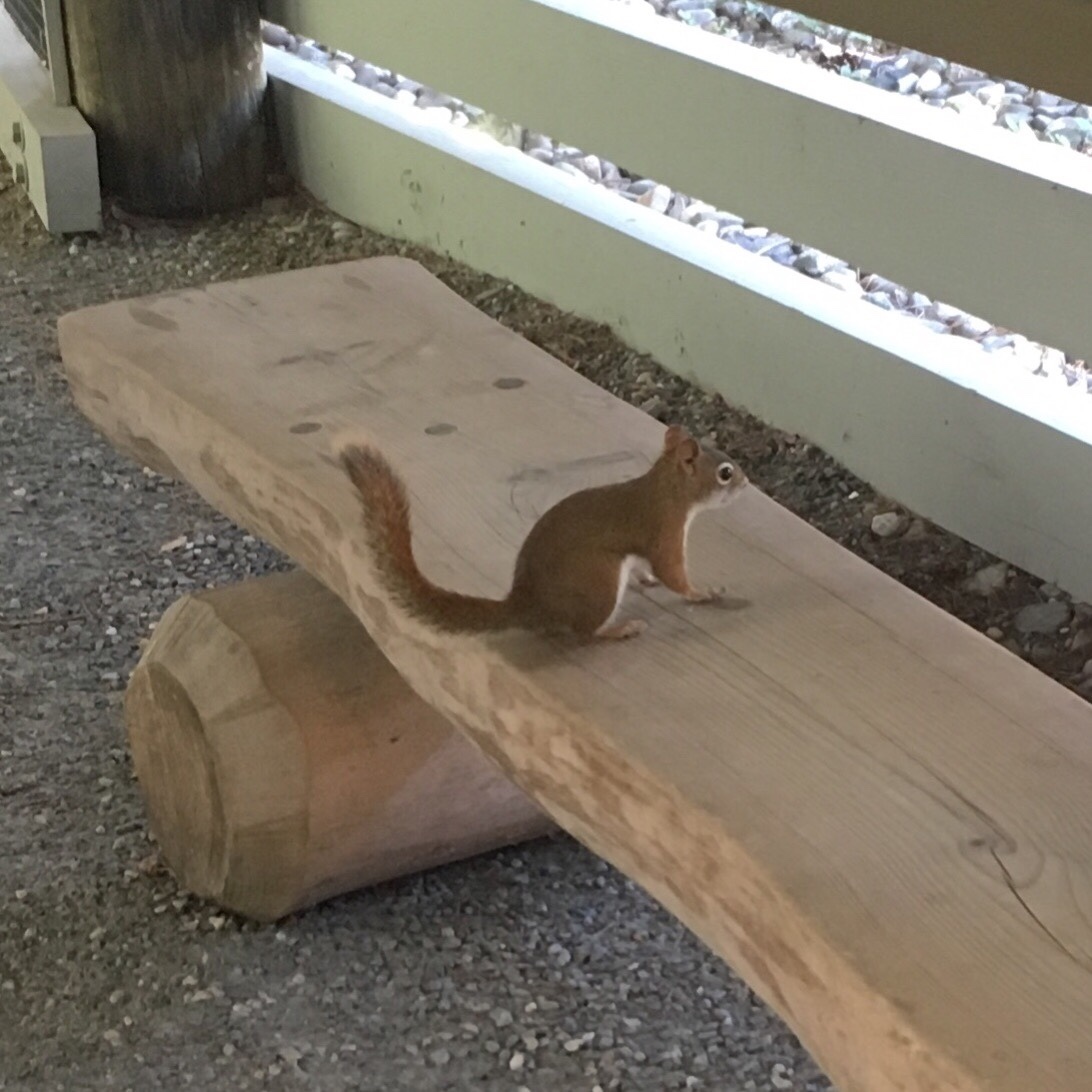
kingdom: Animalia
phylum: Chordata
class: Mammalia
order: Rodentia
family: Sciuridae
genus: Tamiasciurus
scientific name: Tamiasciurus hudsonicus
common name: Red squirrel
